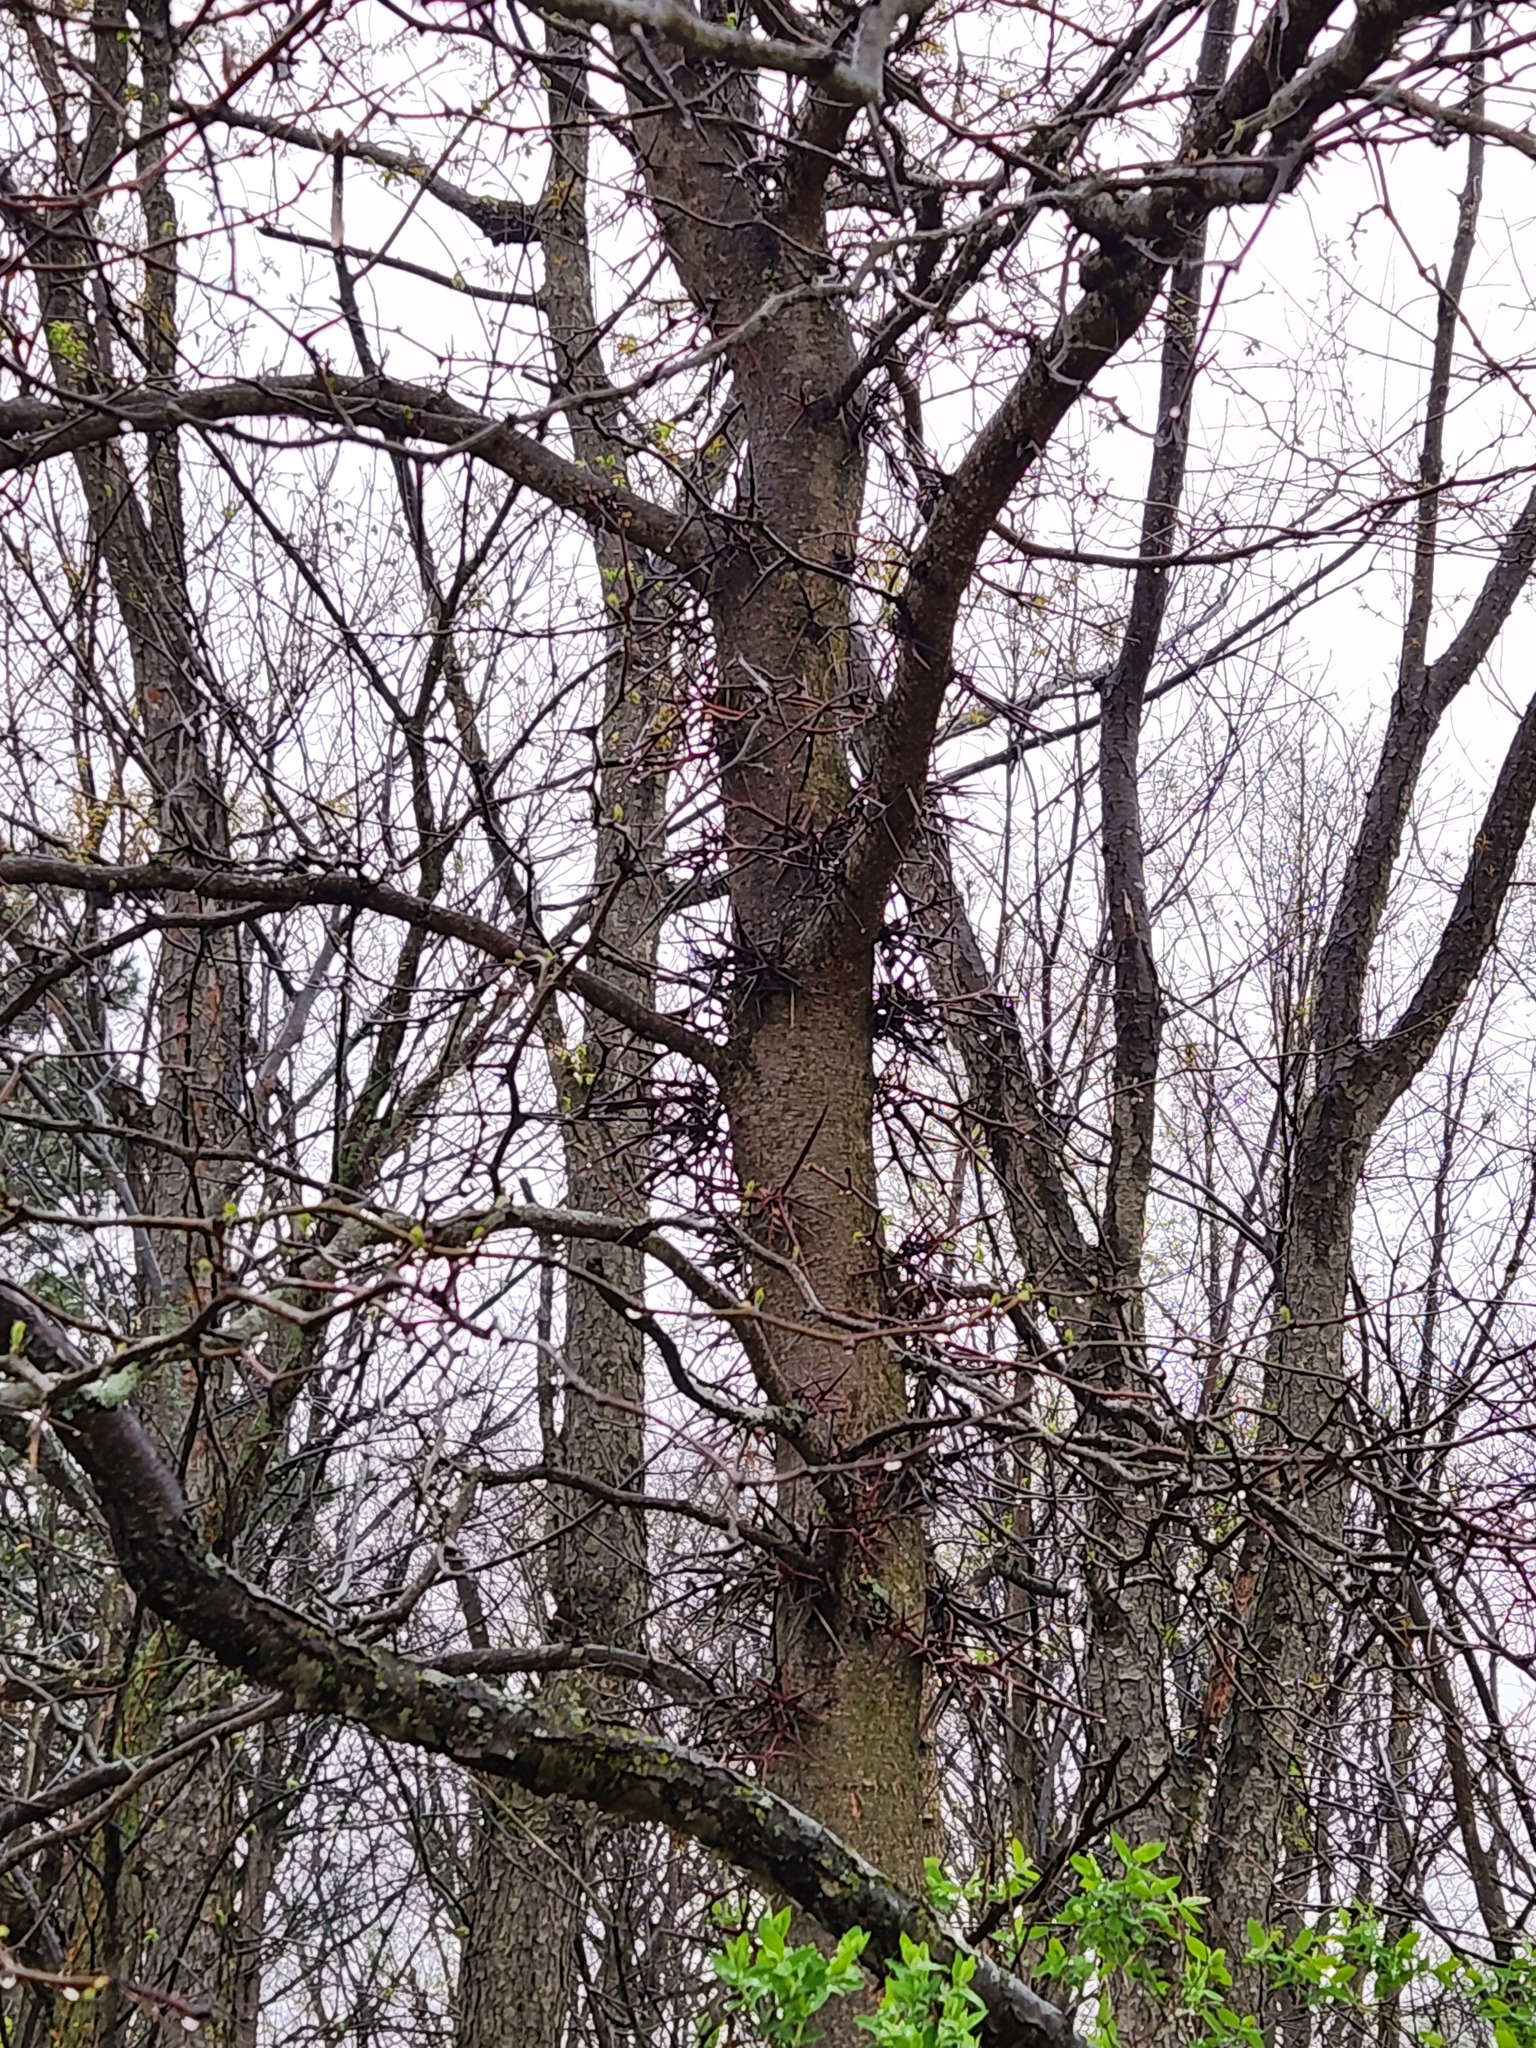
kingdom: Plantae
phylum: Tracheophyta
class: Magnoliopsida
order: Fabales
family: Fabaceae
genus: Gleditsia
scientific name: Gleditsia triacanthos
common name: Common honeylocust
